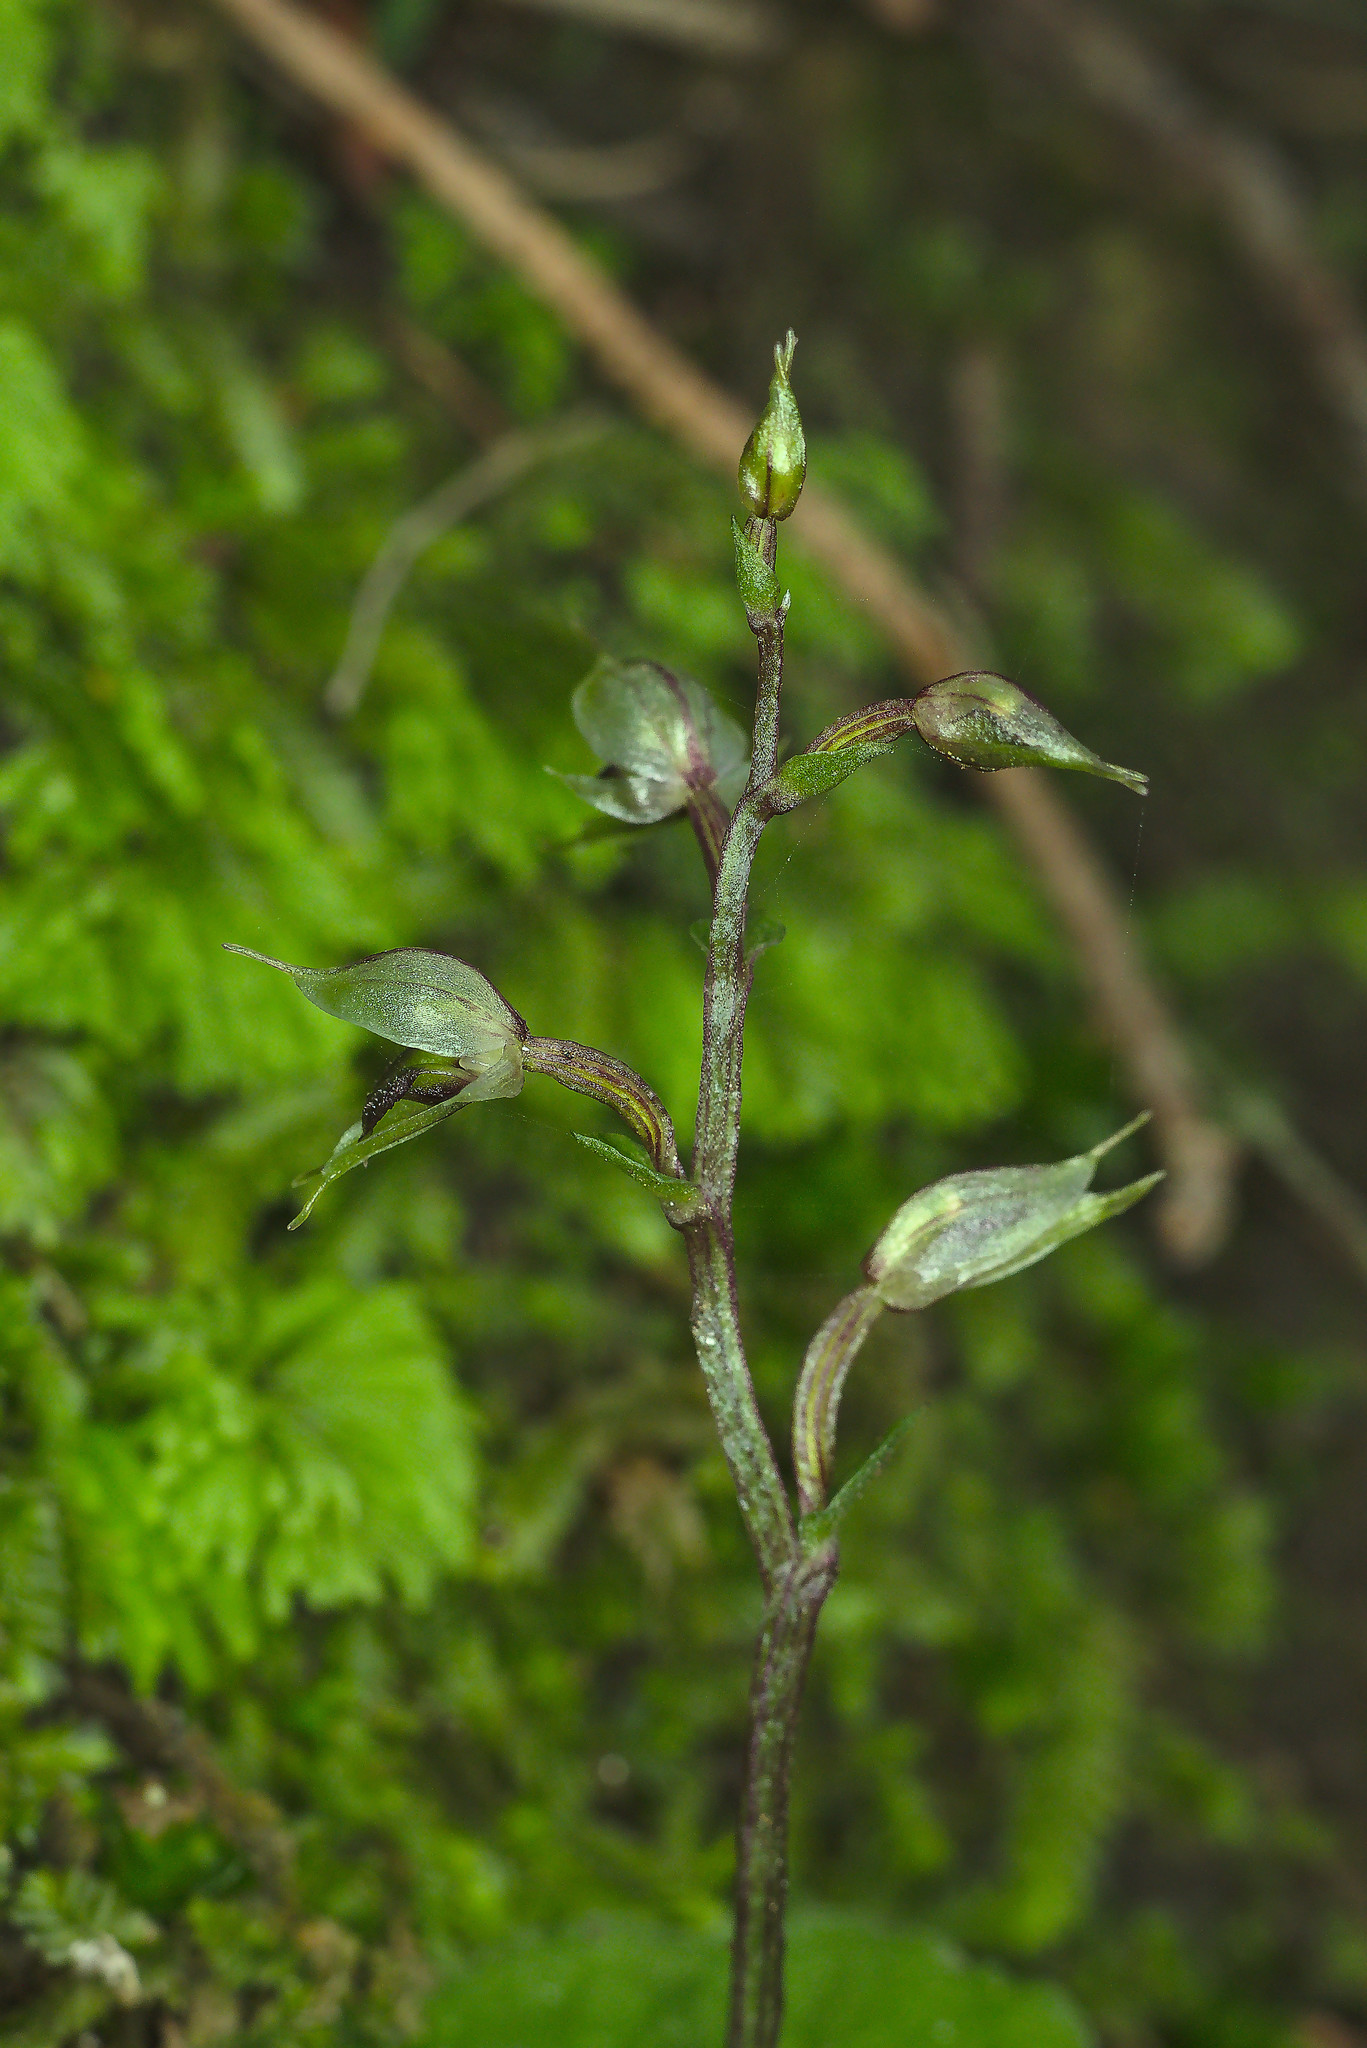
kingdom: Plantae
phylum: Tracheophyta
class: Liliopsida
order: Asparagales
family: Orchidaceae
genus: Acianthus
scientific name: Acianthus sinclairii
